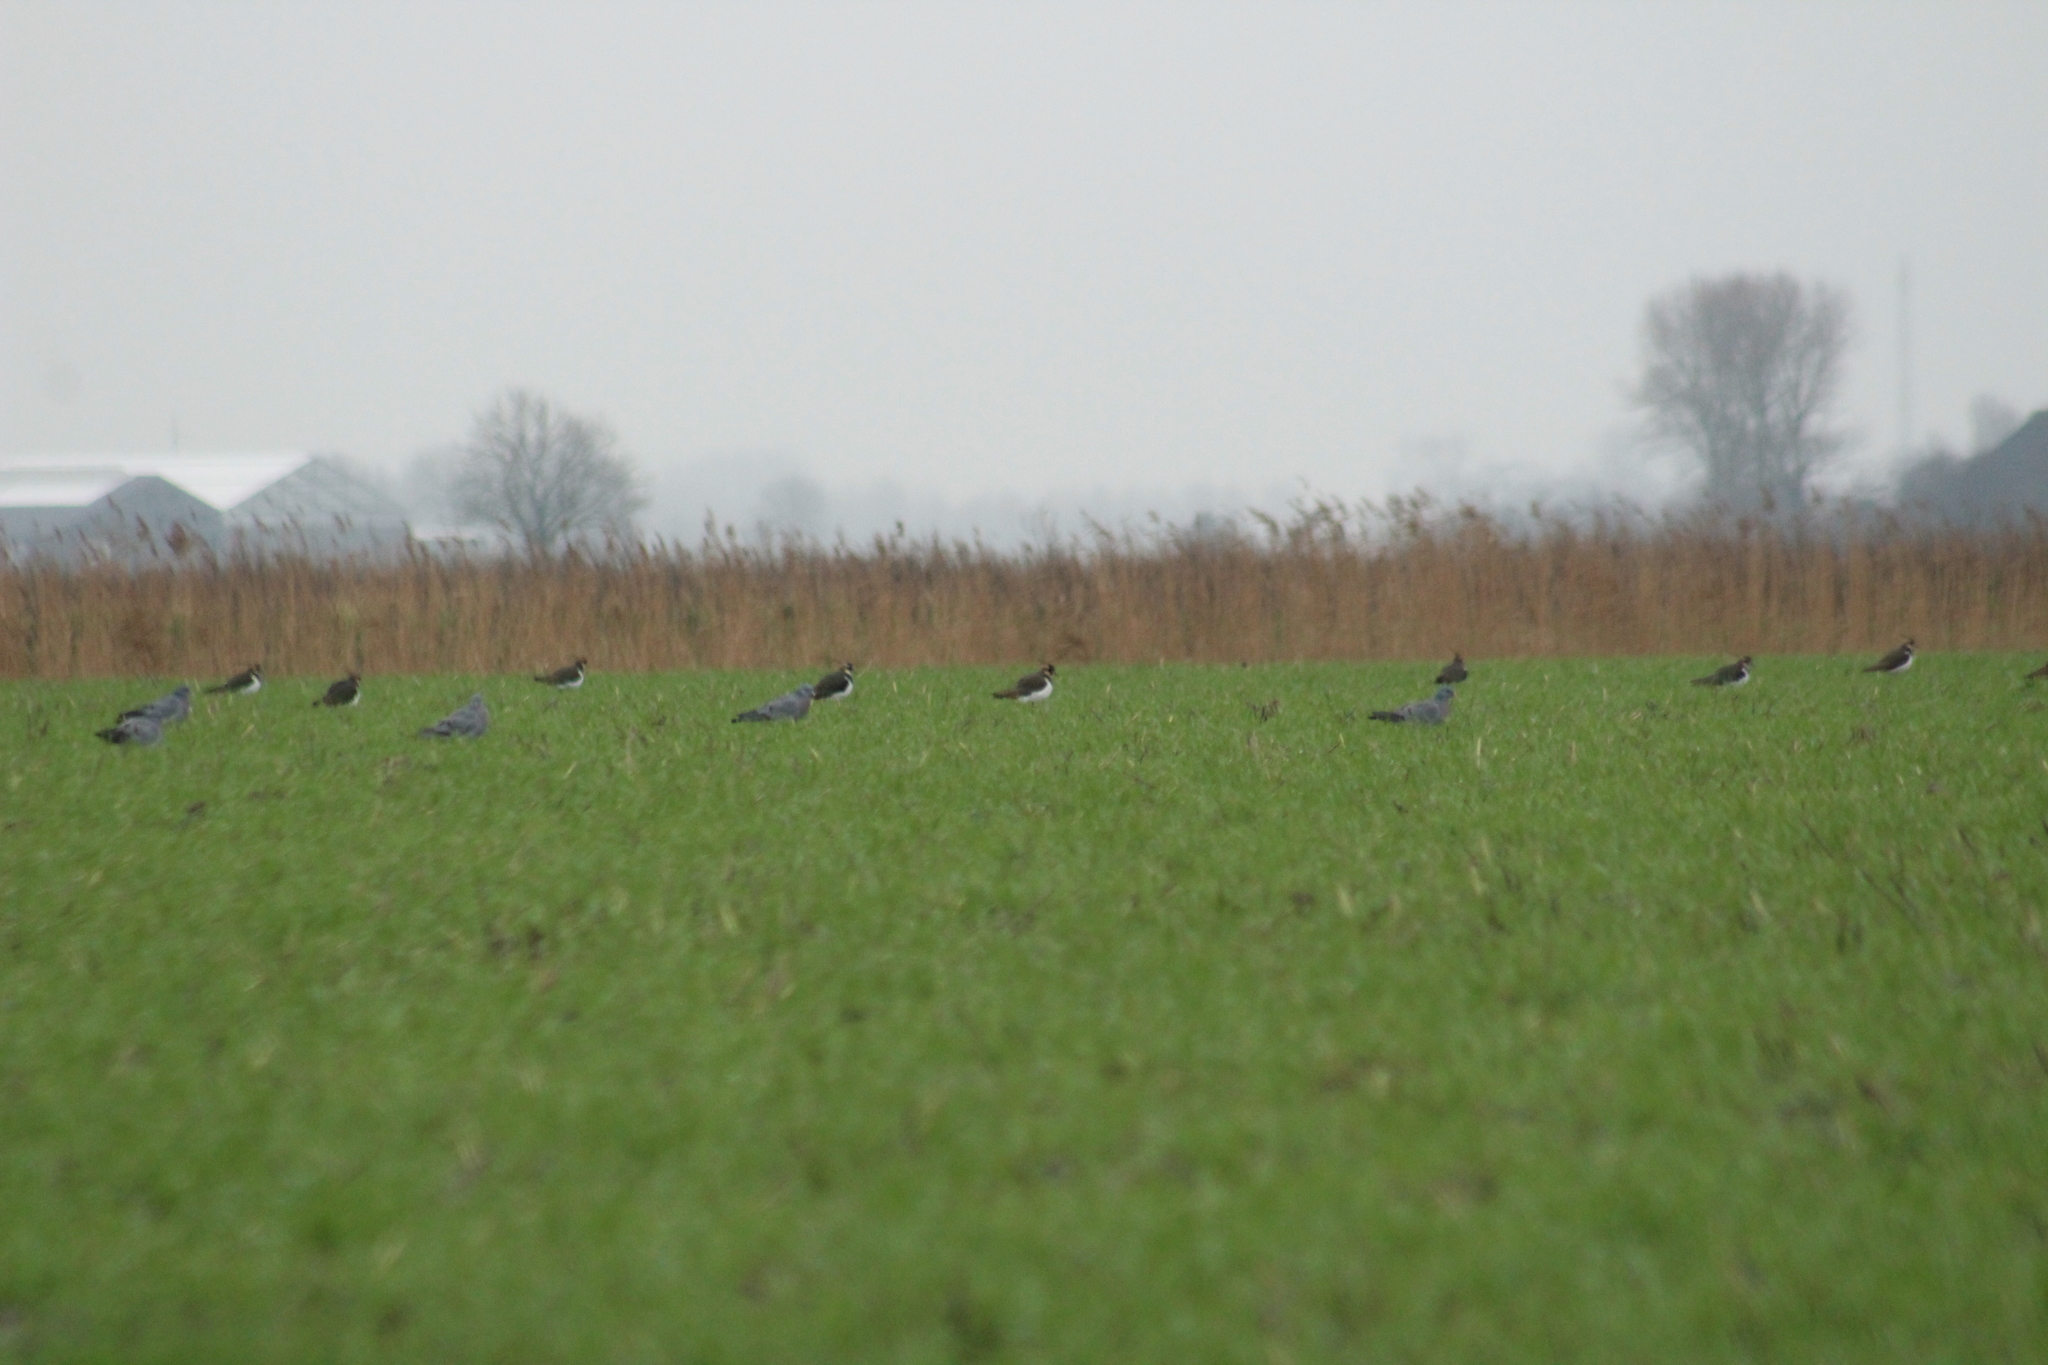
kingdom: Animalia
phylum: Chordata
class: Aves
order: Charadriiformes
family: Charadriidae
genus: Vanellus
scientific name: Vanellus vanellus
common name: Northern lapwing
